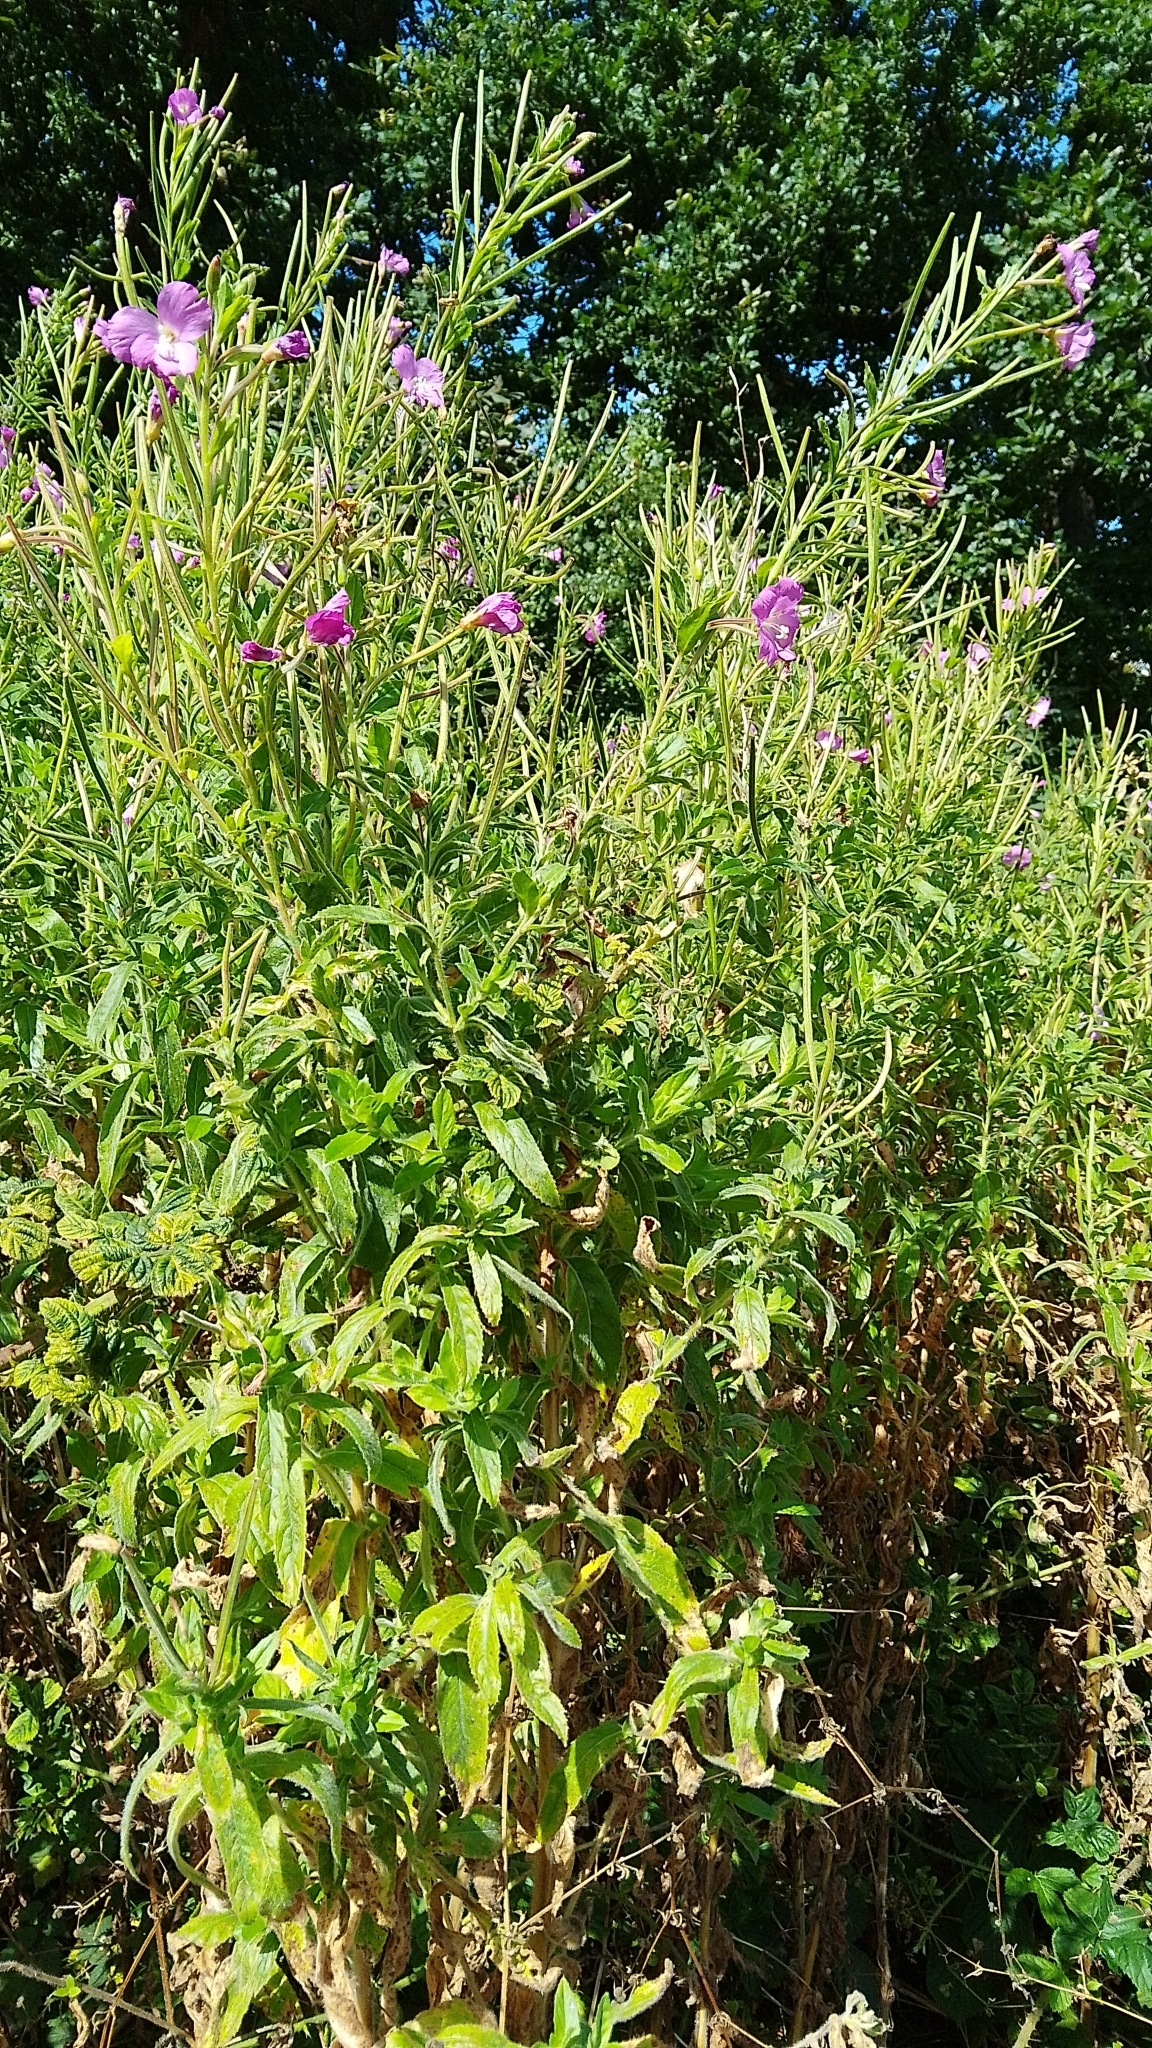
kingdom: Plantae
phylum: Tracheophyta
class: Magnoliopsida
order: Myrtales
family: Onagraceae
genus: Epilobium
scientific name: Epilobium hirsutum
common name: Great willowherb
